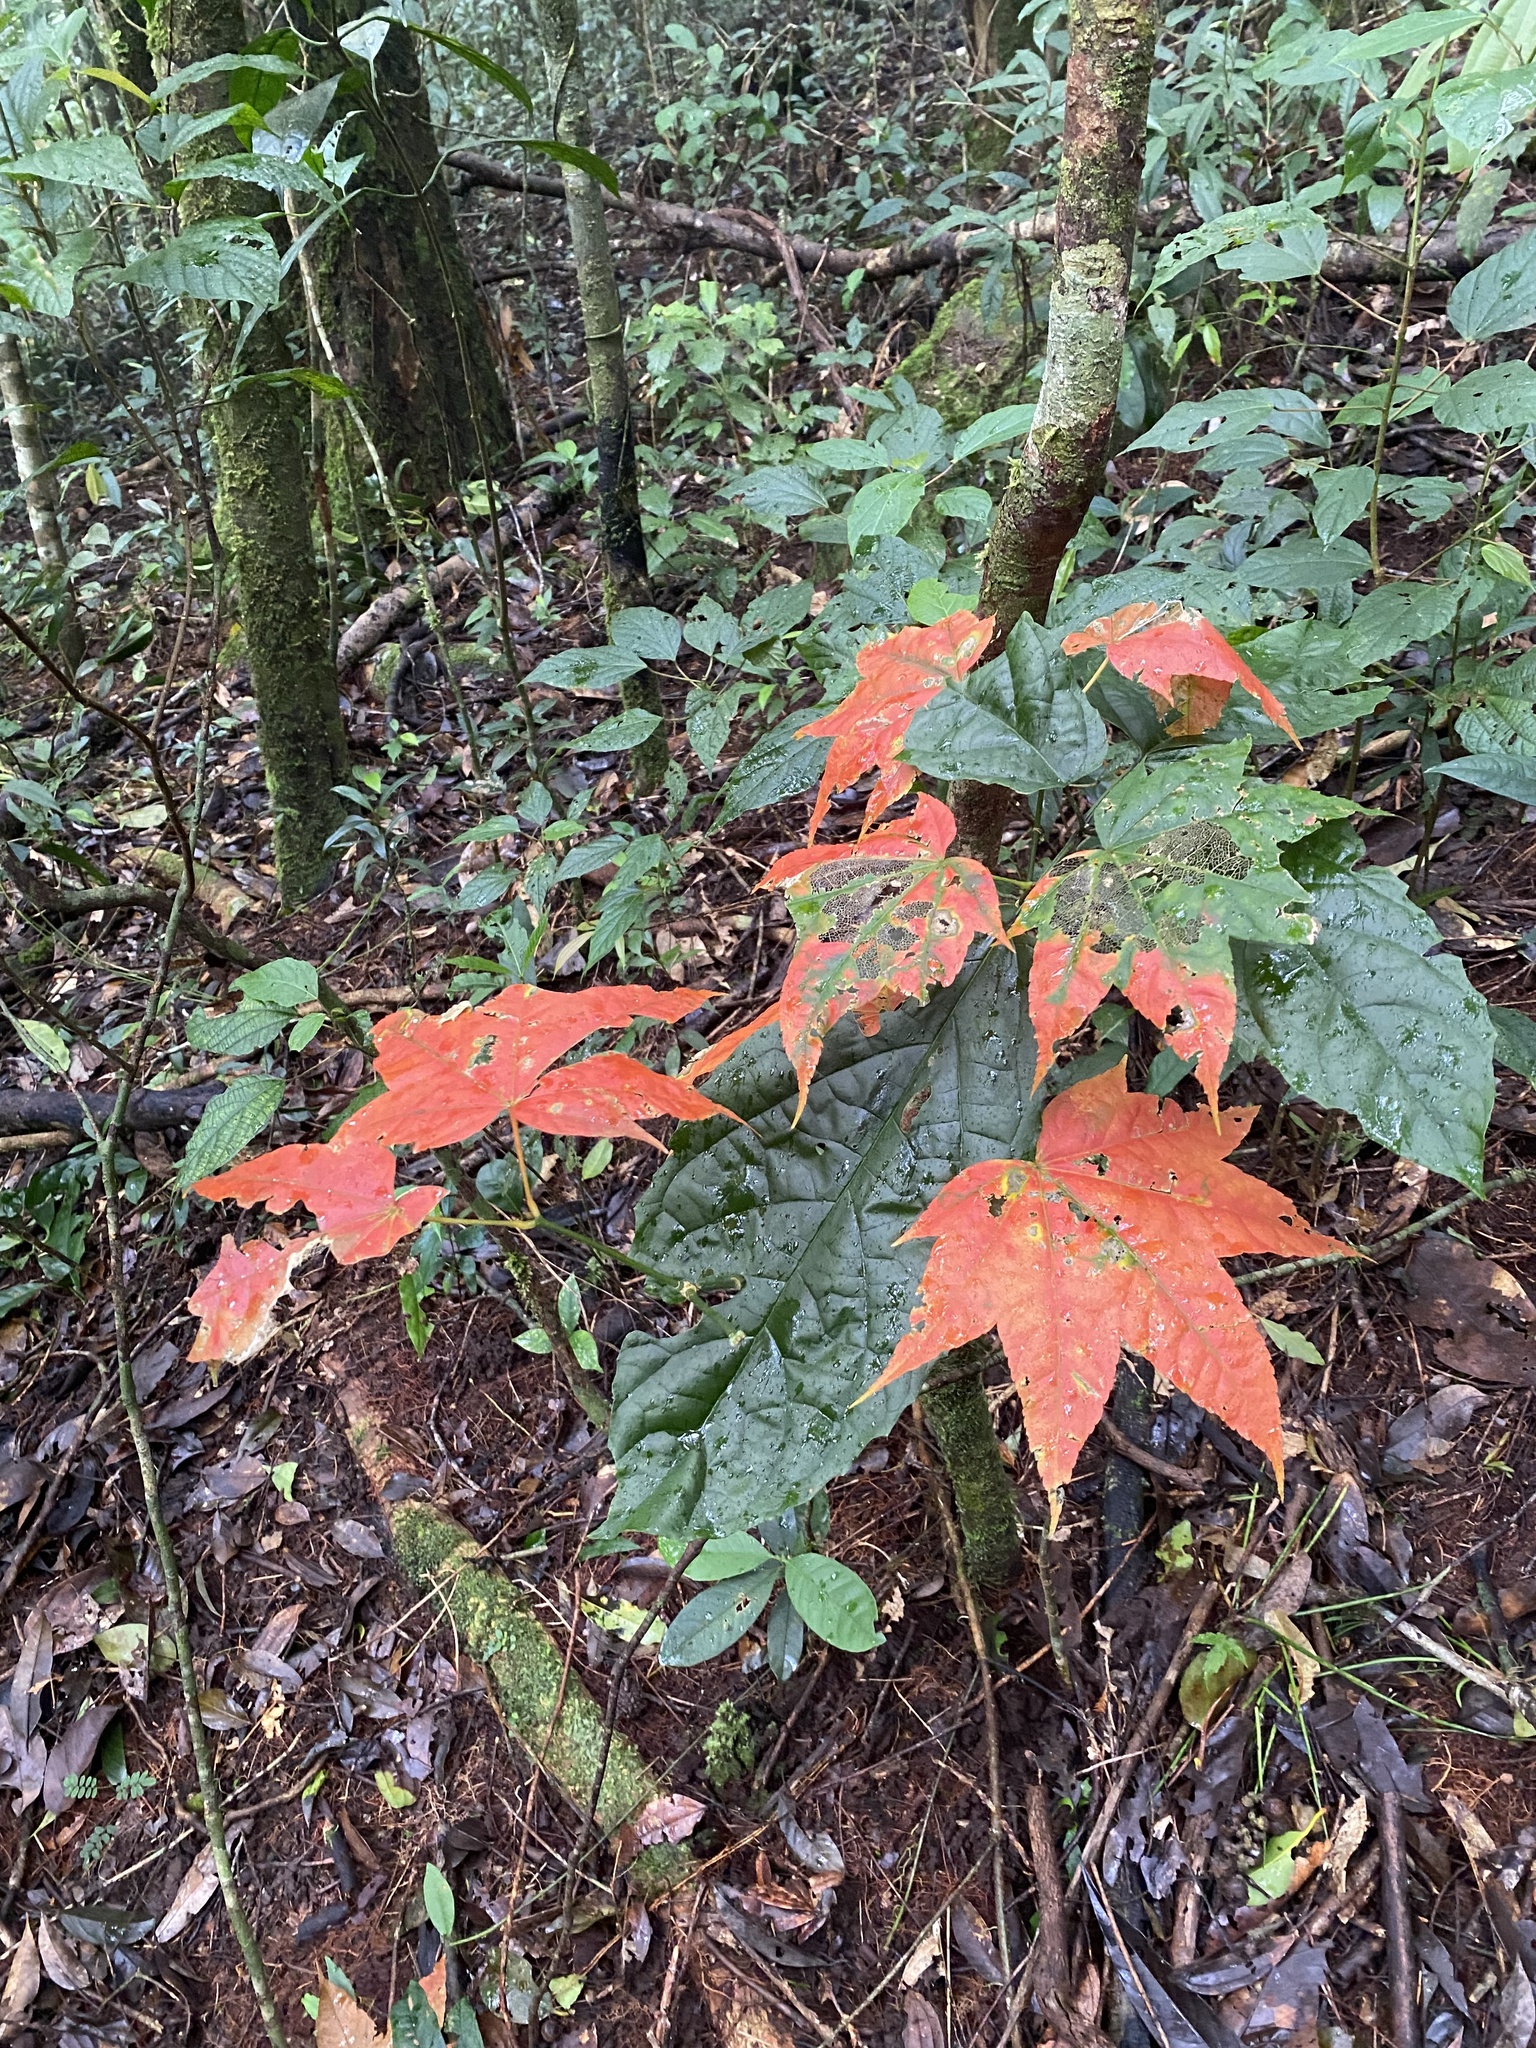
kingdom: Plantae
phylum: Tracheophyta
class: Magnoliopsida
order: Sapindales
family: Sapindaceae
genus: Acer
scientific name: Acer campbellii
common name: Campbell's maple
